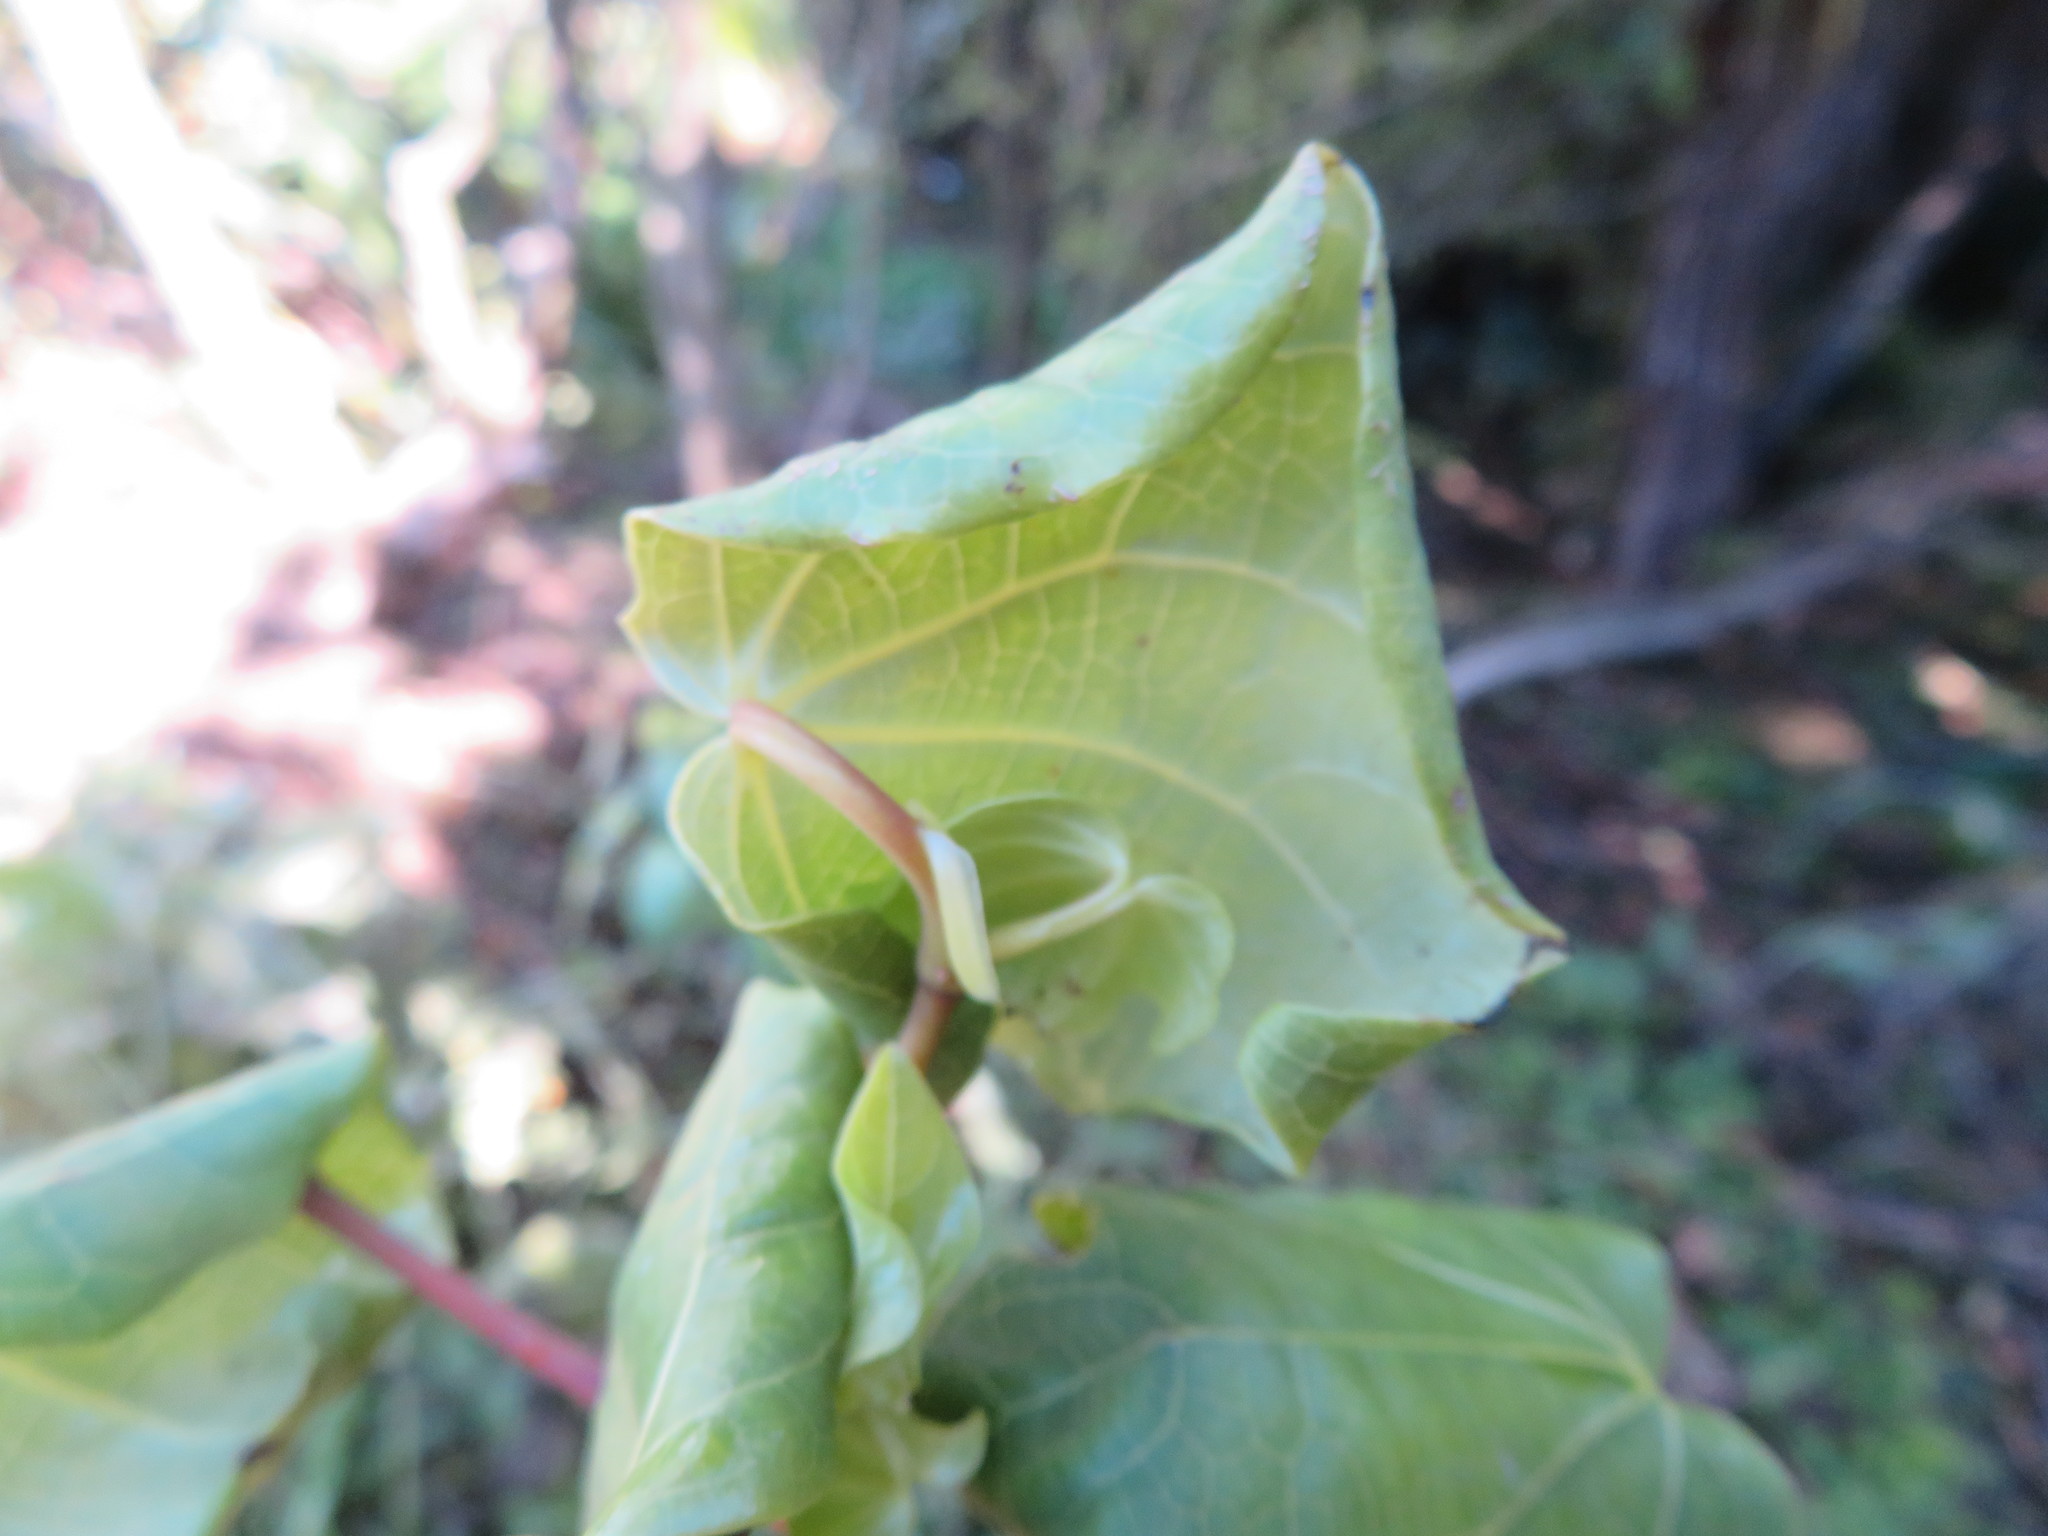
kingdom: Plantae
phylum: Tracheophyta
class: Magnoliopsida
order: Piperales
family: Piperaceae
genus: Macropiper
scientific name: Macropiper excelsum
